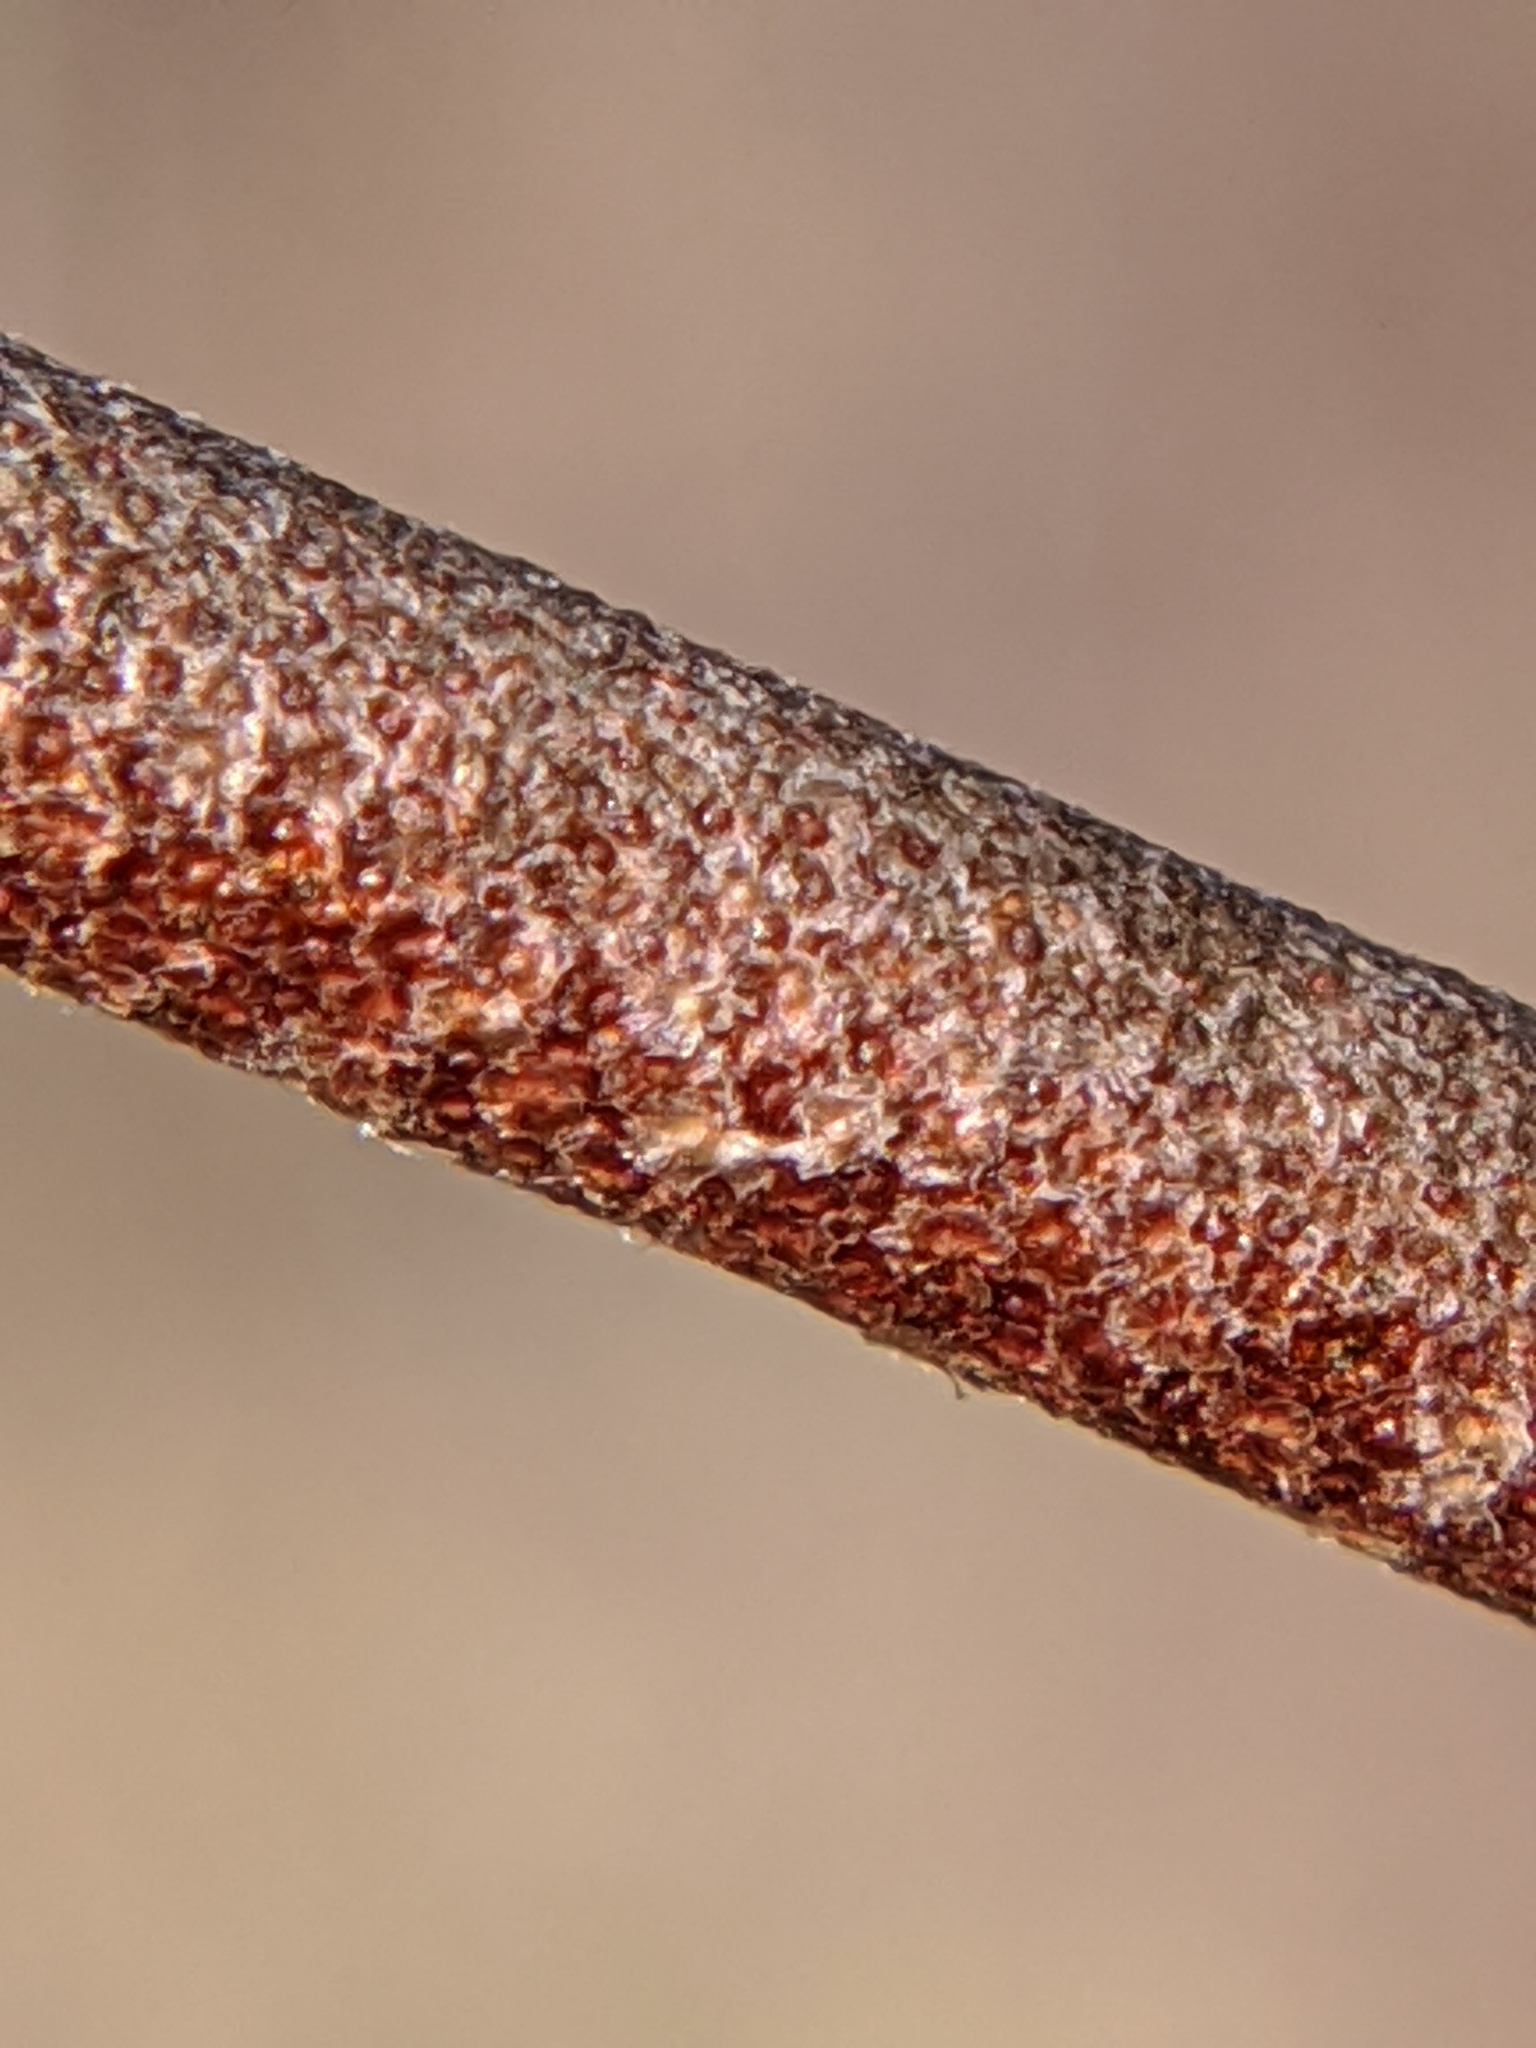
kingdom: Plantae
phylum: Tracheophyta
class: Magnoliopsida
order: Rosales
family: Elaeagnaceae
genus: Elaeagnus
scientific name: Elaeagnus umbellata
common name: Autumn olive
